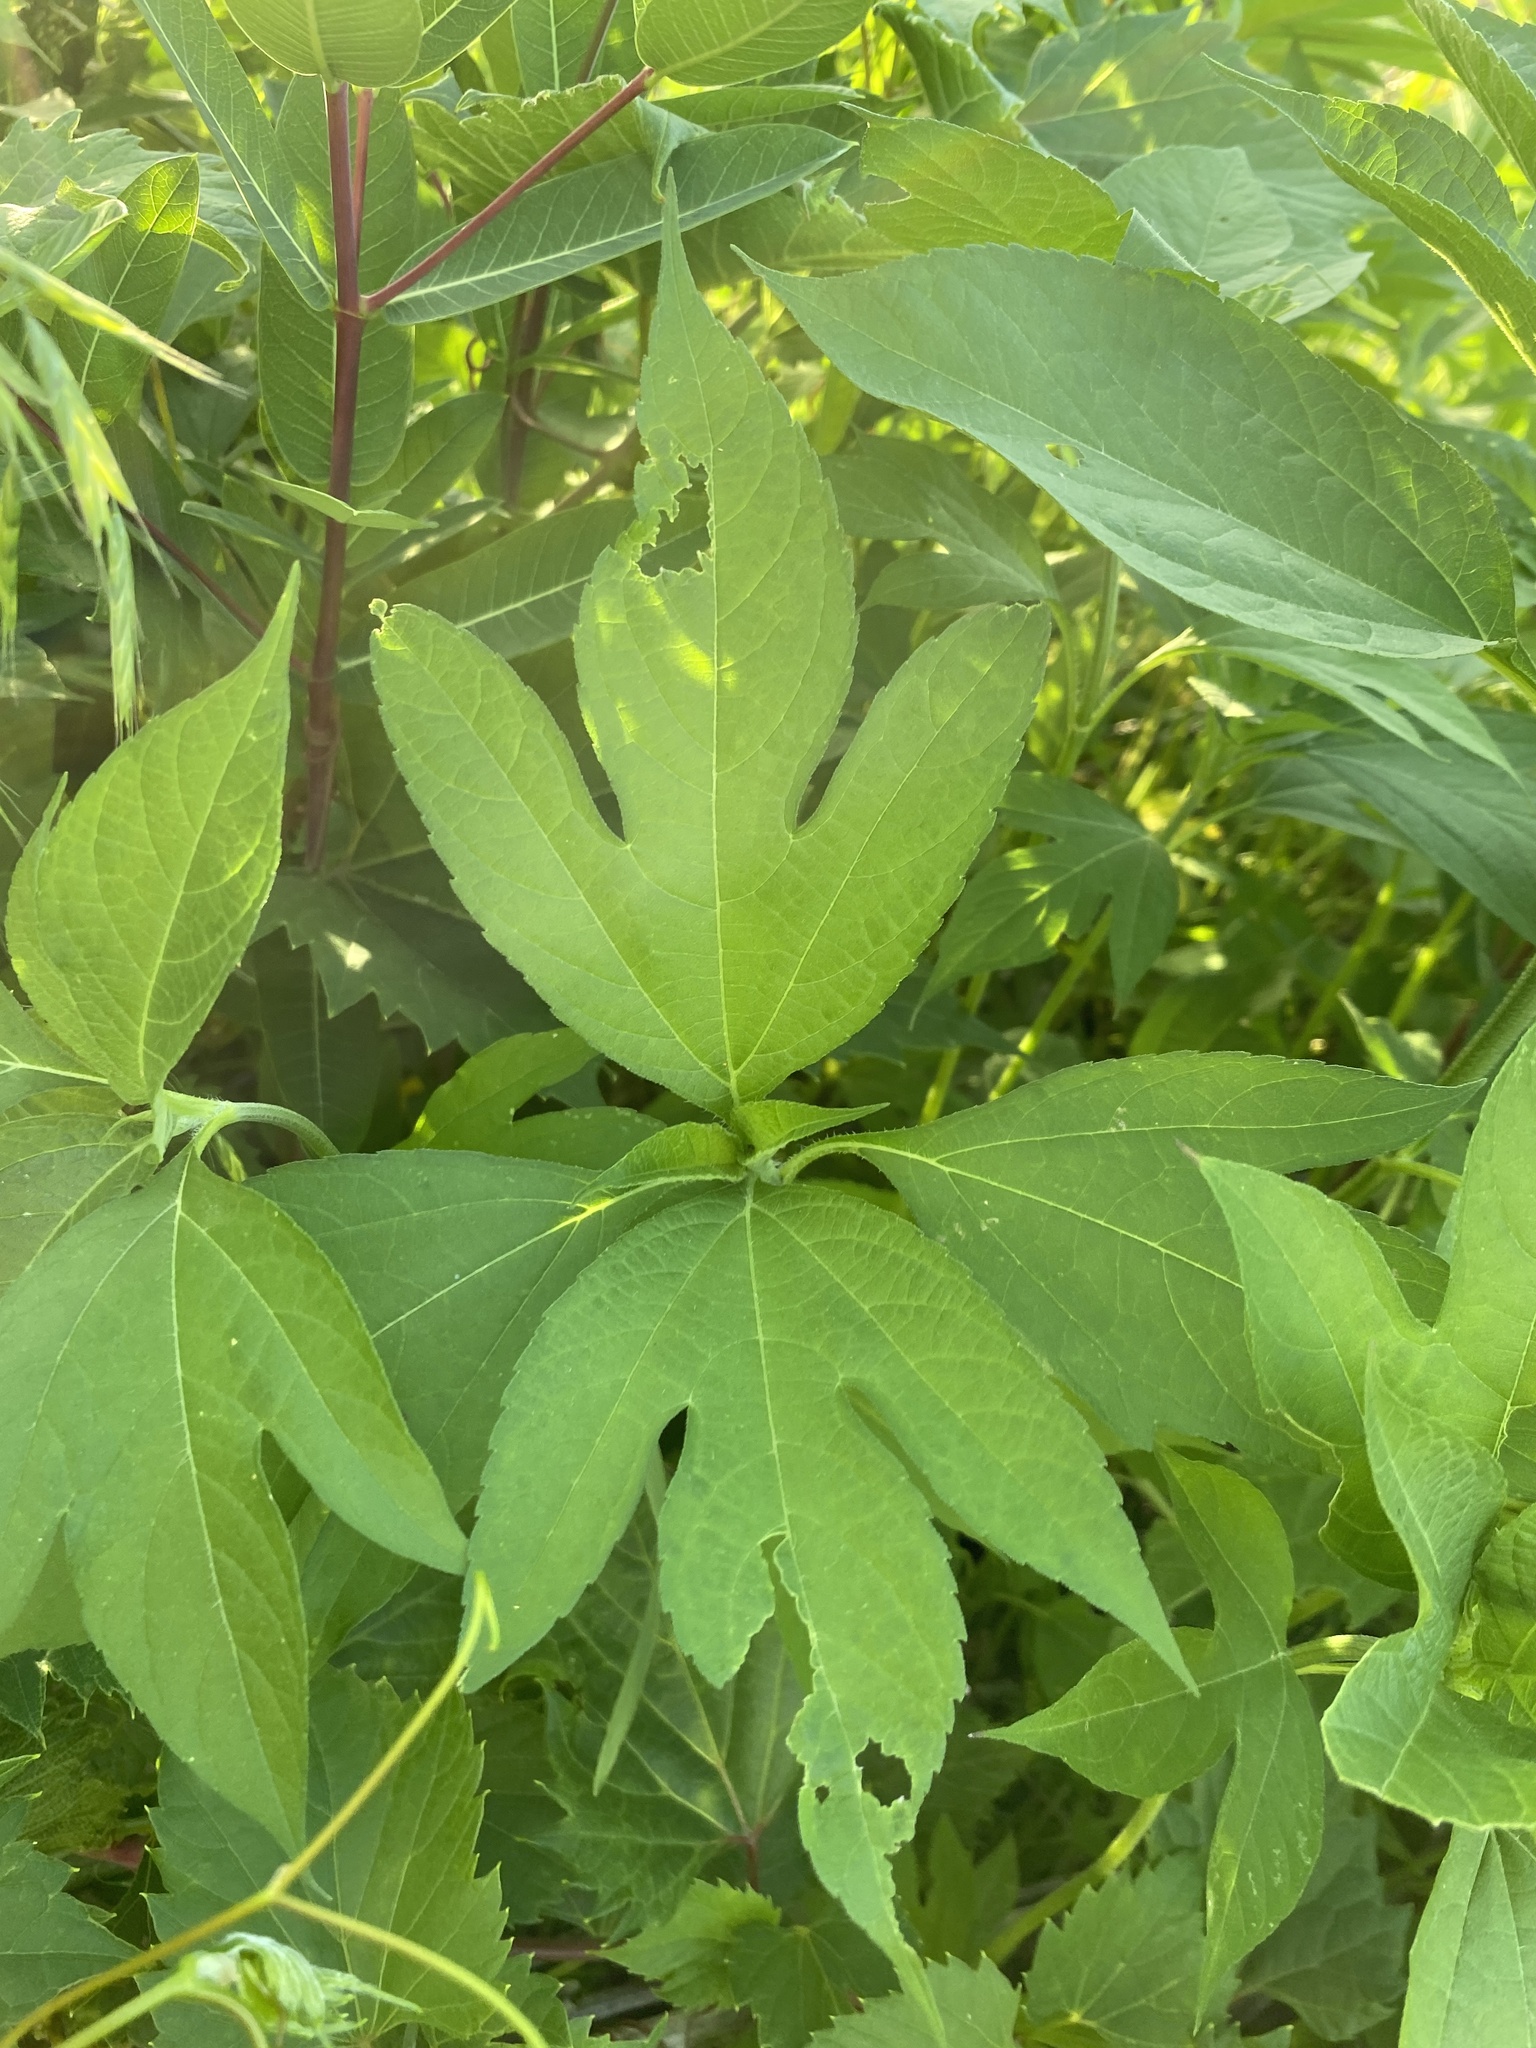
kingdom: Plantae
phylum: Tracheophyta
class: Magnoliopsida
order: Asterales
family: Asteraceae
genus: Ambrosia
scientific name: Ambrosia trifida
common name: Giant ragweed
